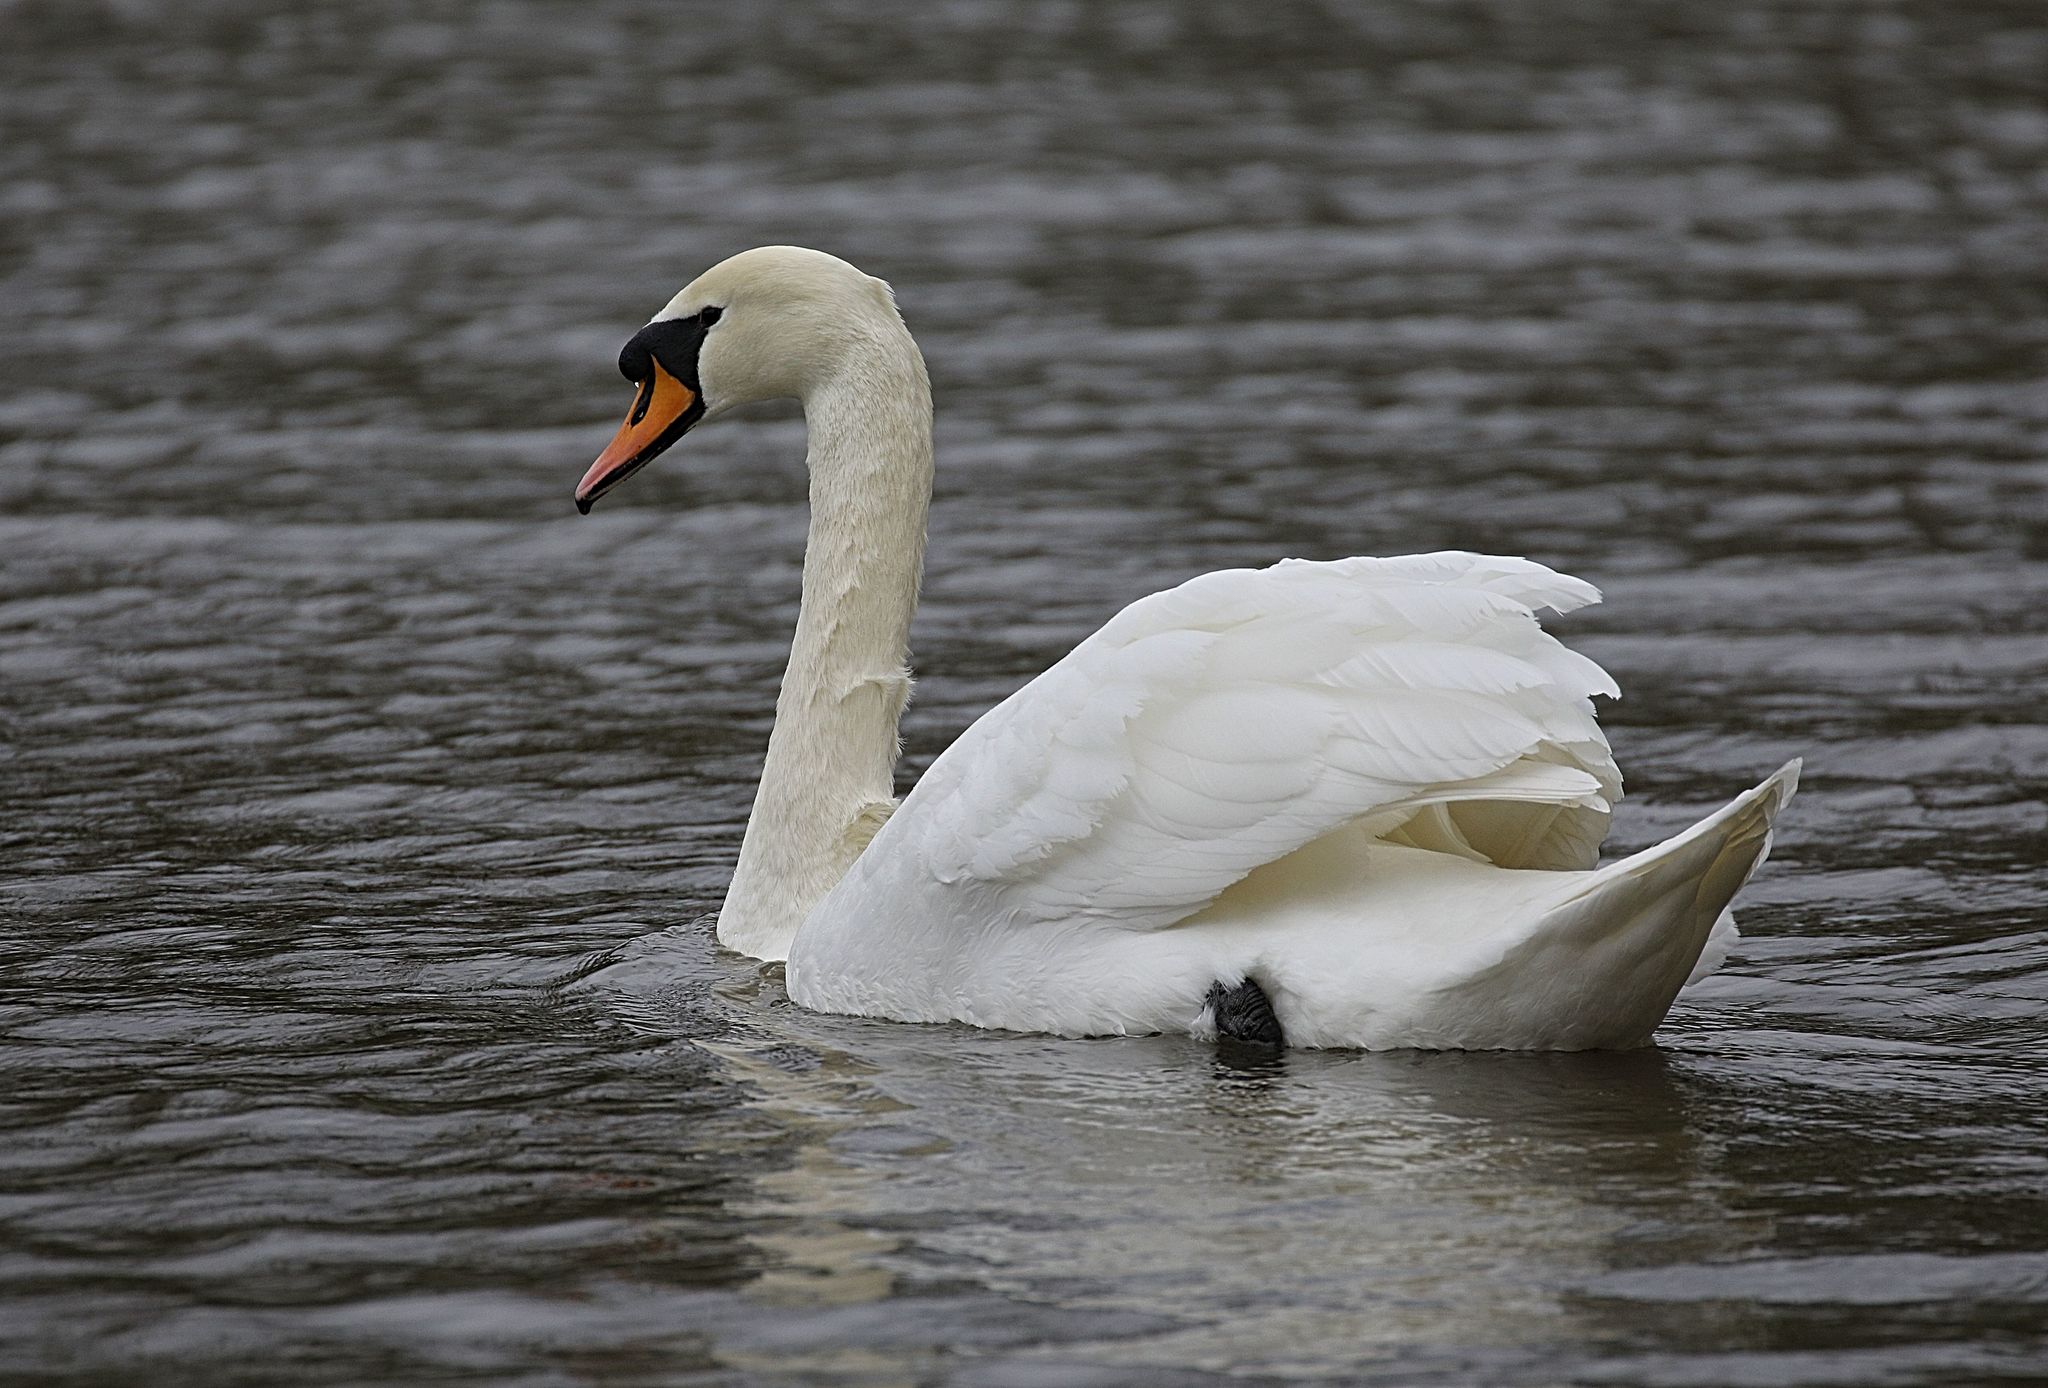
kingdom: Animalia
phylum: Chordata
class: Aves
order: Anseriformes
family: Anatidae
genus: Cygnus
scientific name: Cygnus olor
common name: Mute swan
